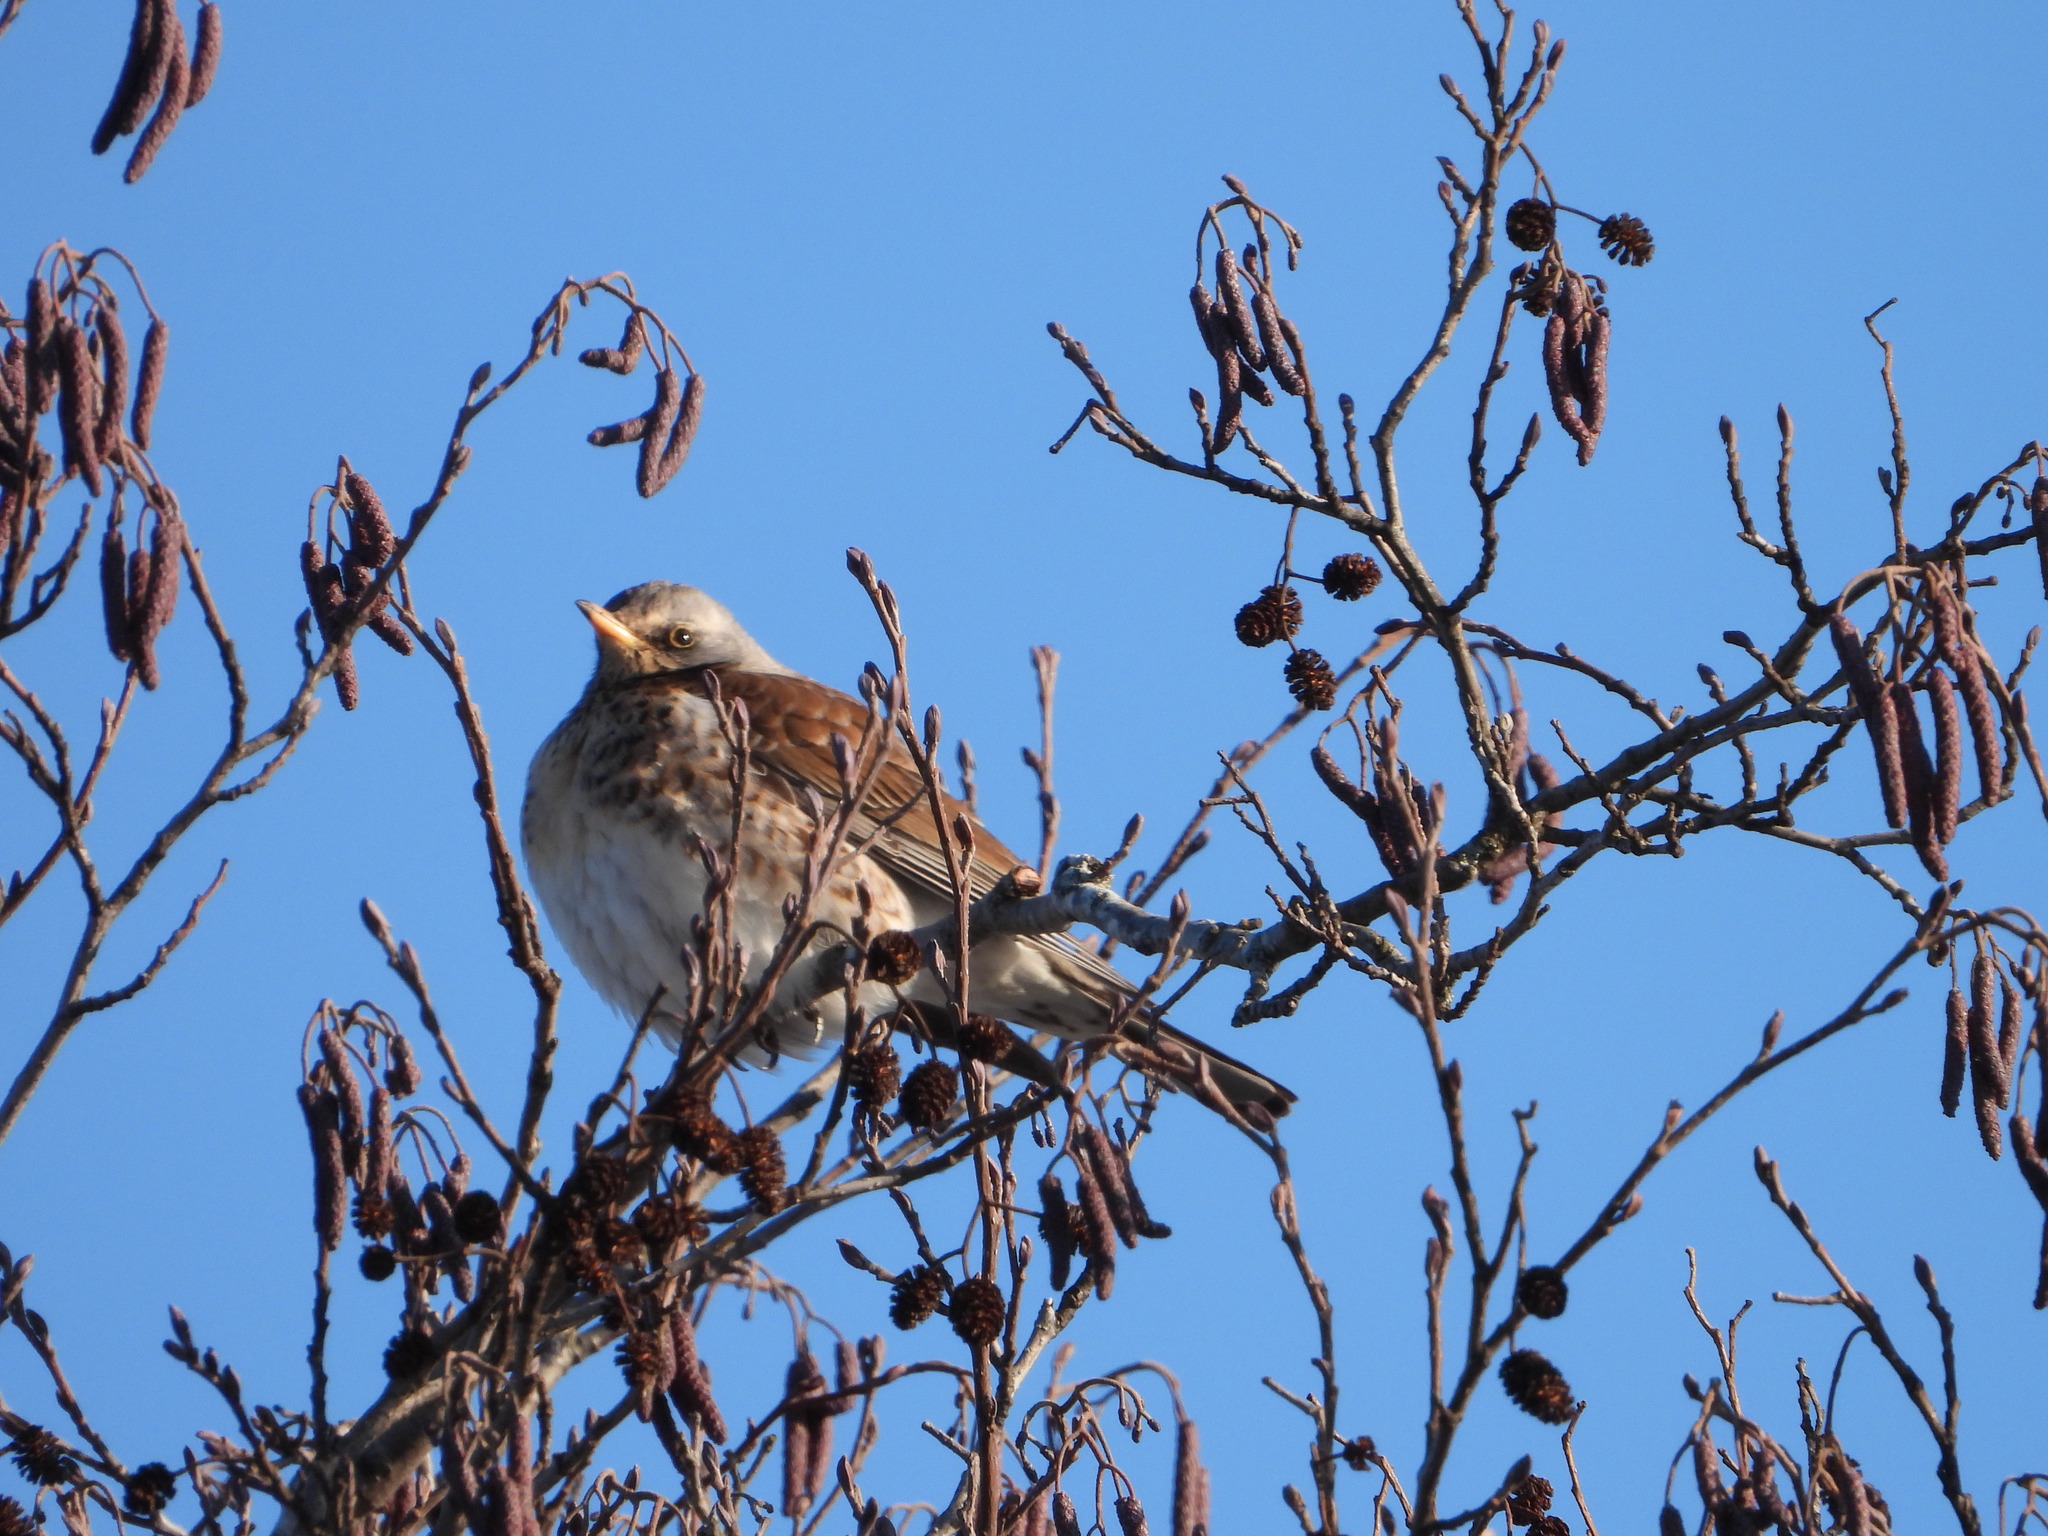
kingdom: Animalia
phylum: Chordata
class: Aves
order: Passeriformes
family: Turdidae
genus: Turdus
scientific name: Turdus pilaris
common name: Fieldfare
